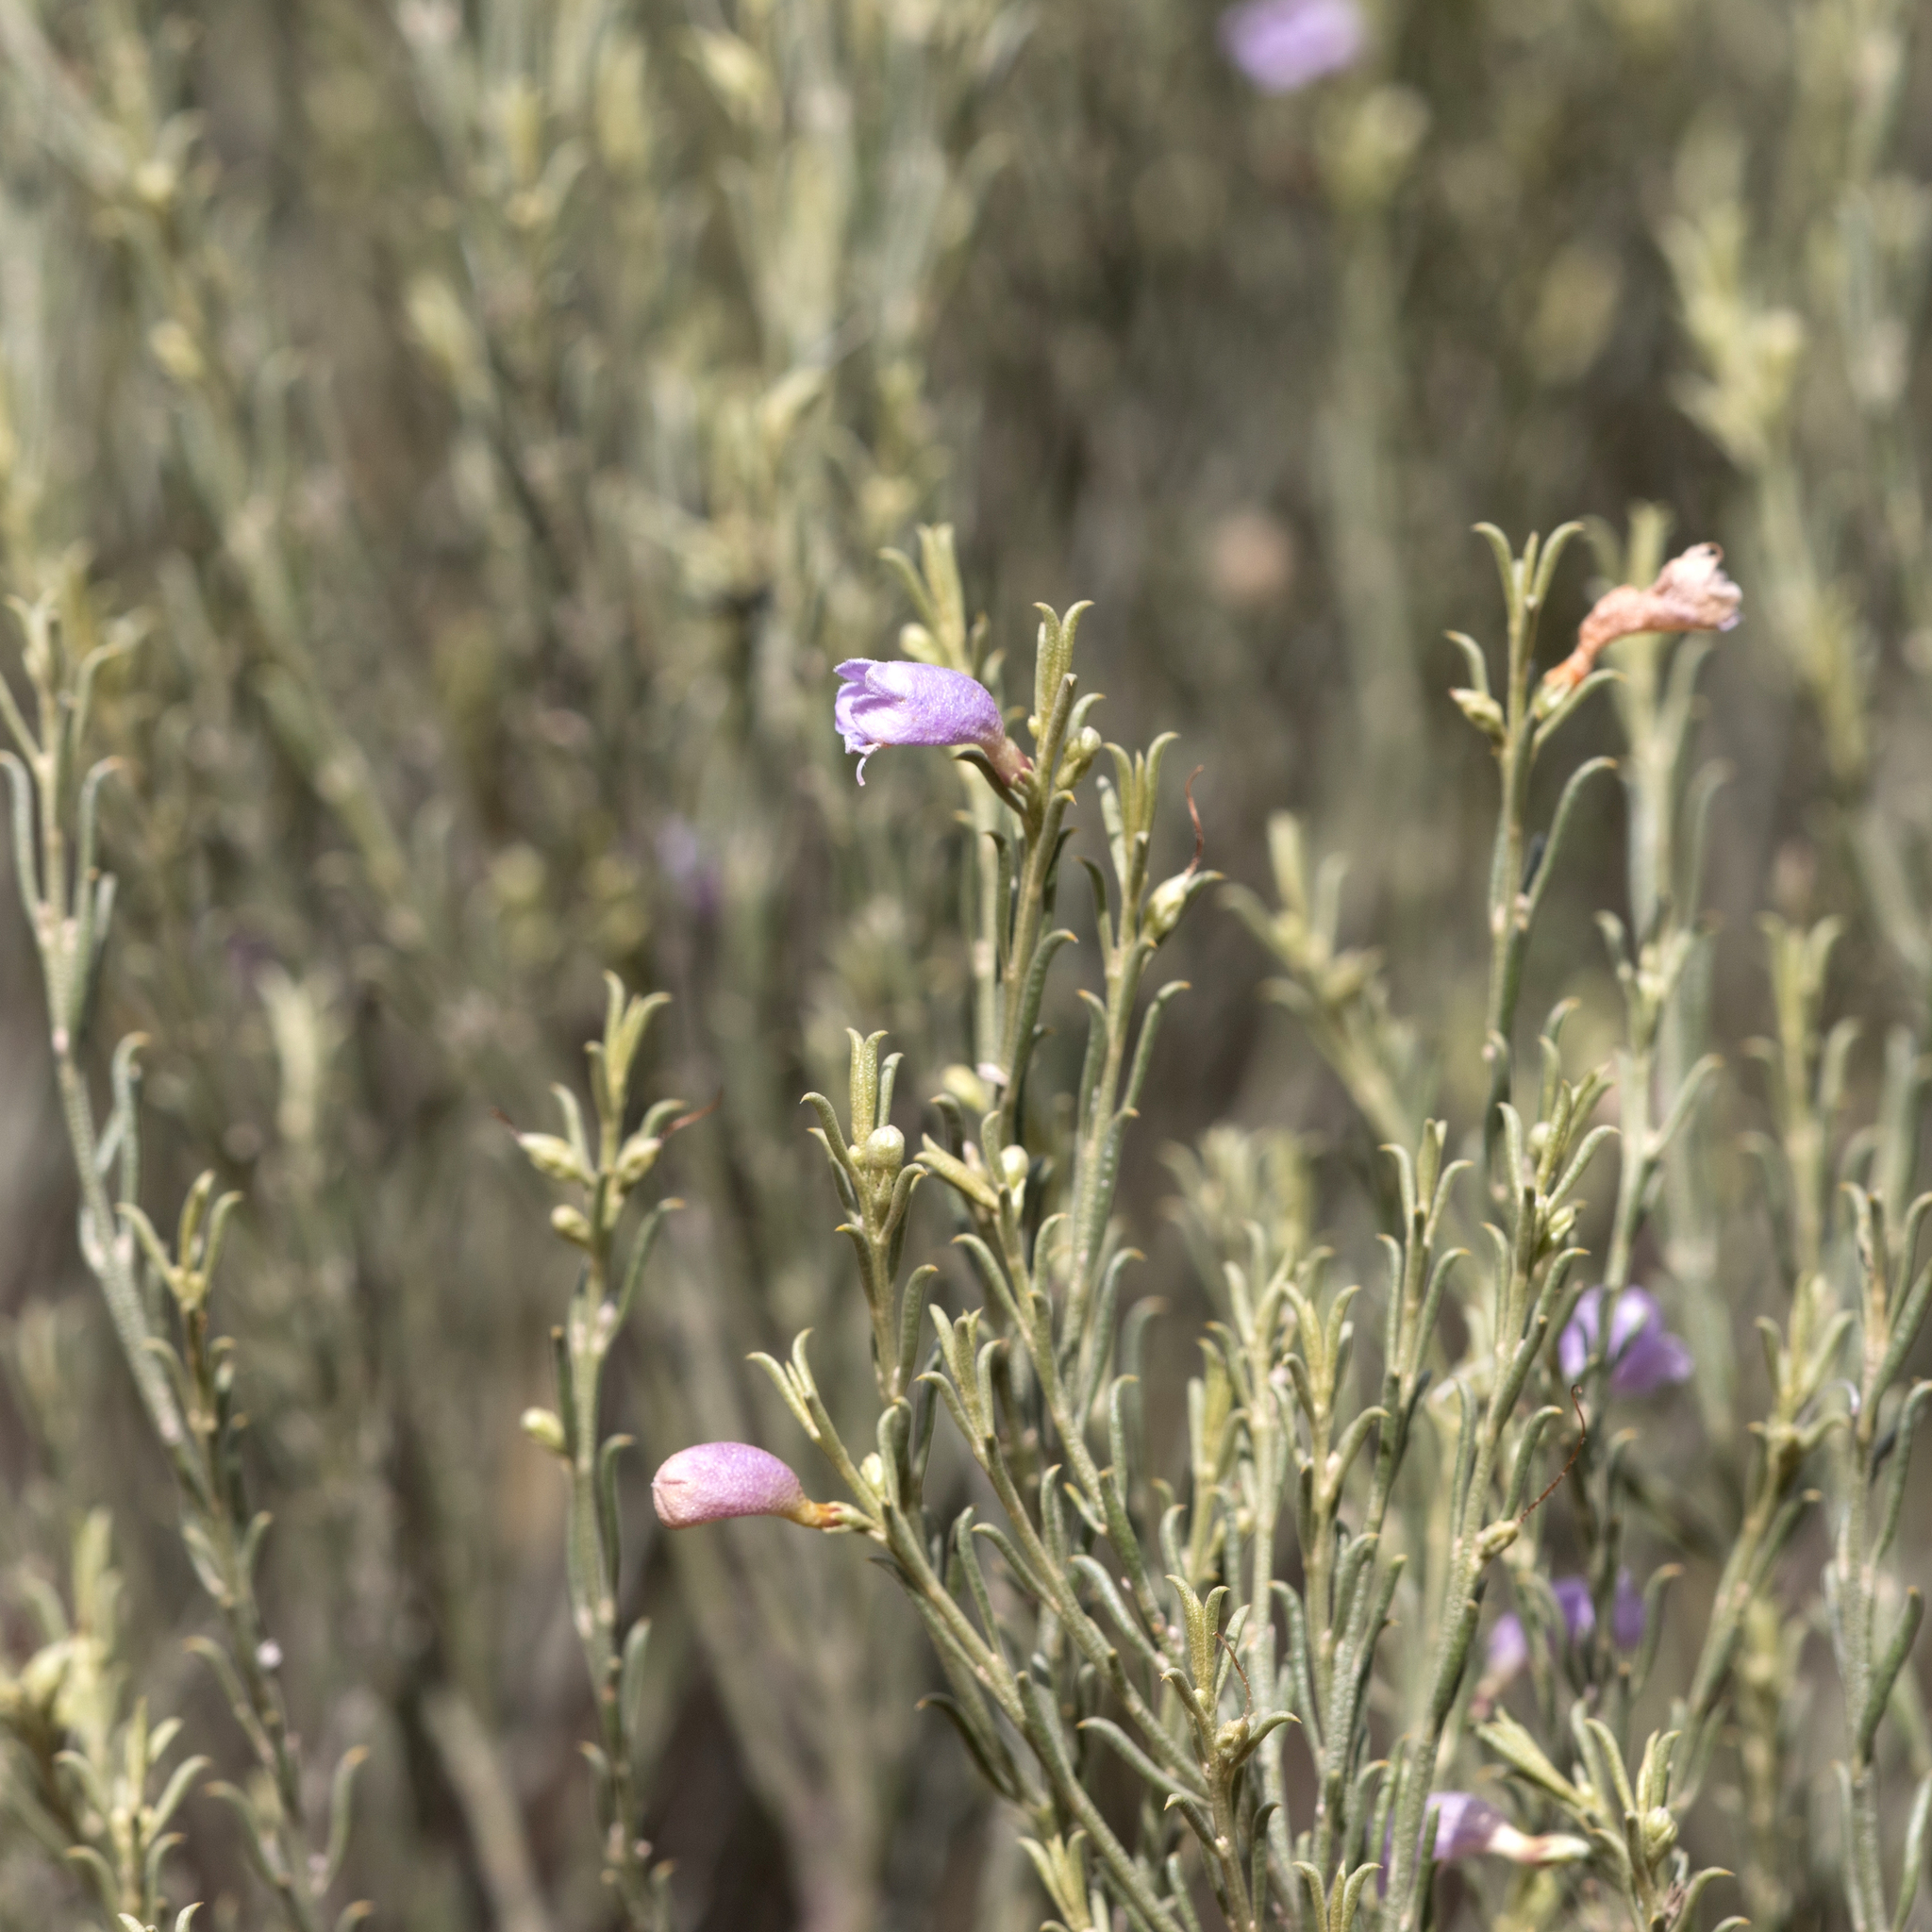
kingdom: Plantae
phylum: Tracheophyta
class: Magnoliopsida
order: Lamiales
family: Scrophulariaceae
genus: Eremophila
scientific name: Eremophila scoparia
